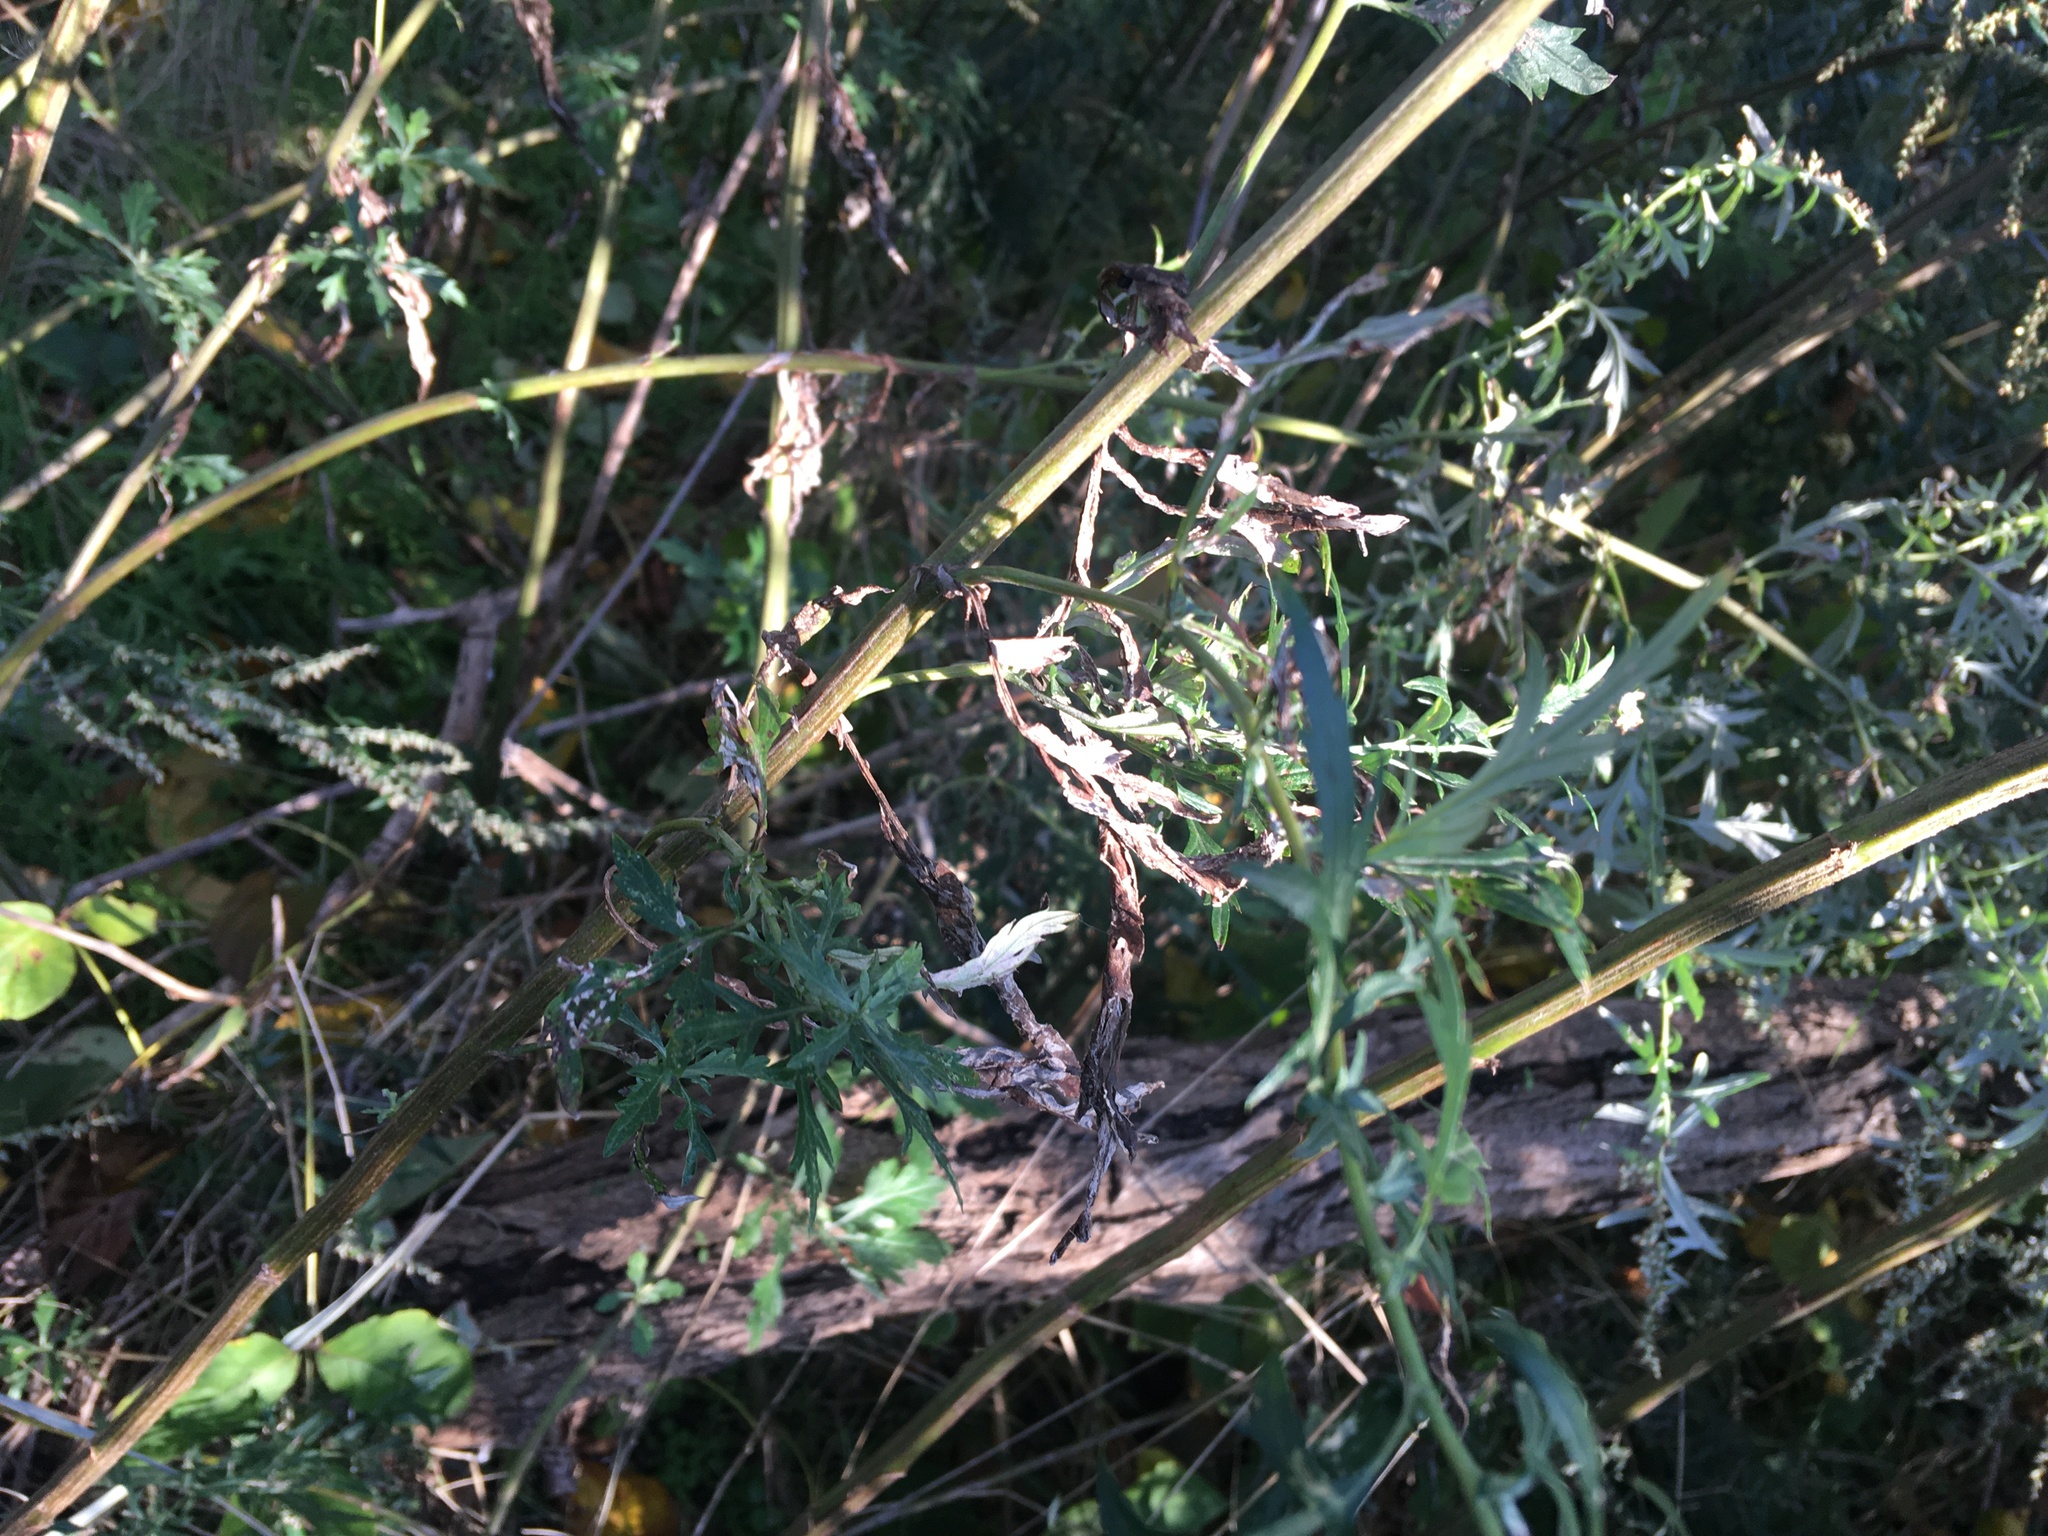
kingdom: Plantae
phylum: Tracheophyta
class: Magnoliopsida
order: Asterales
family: Asteraceae
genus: Artemisia
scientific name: Artemisia vulgaris
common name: Mugwort
